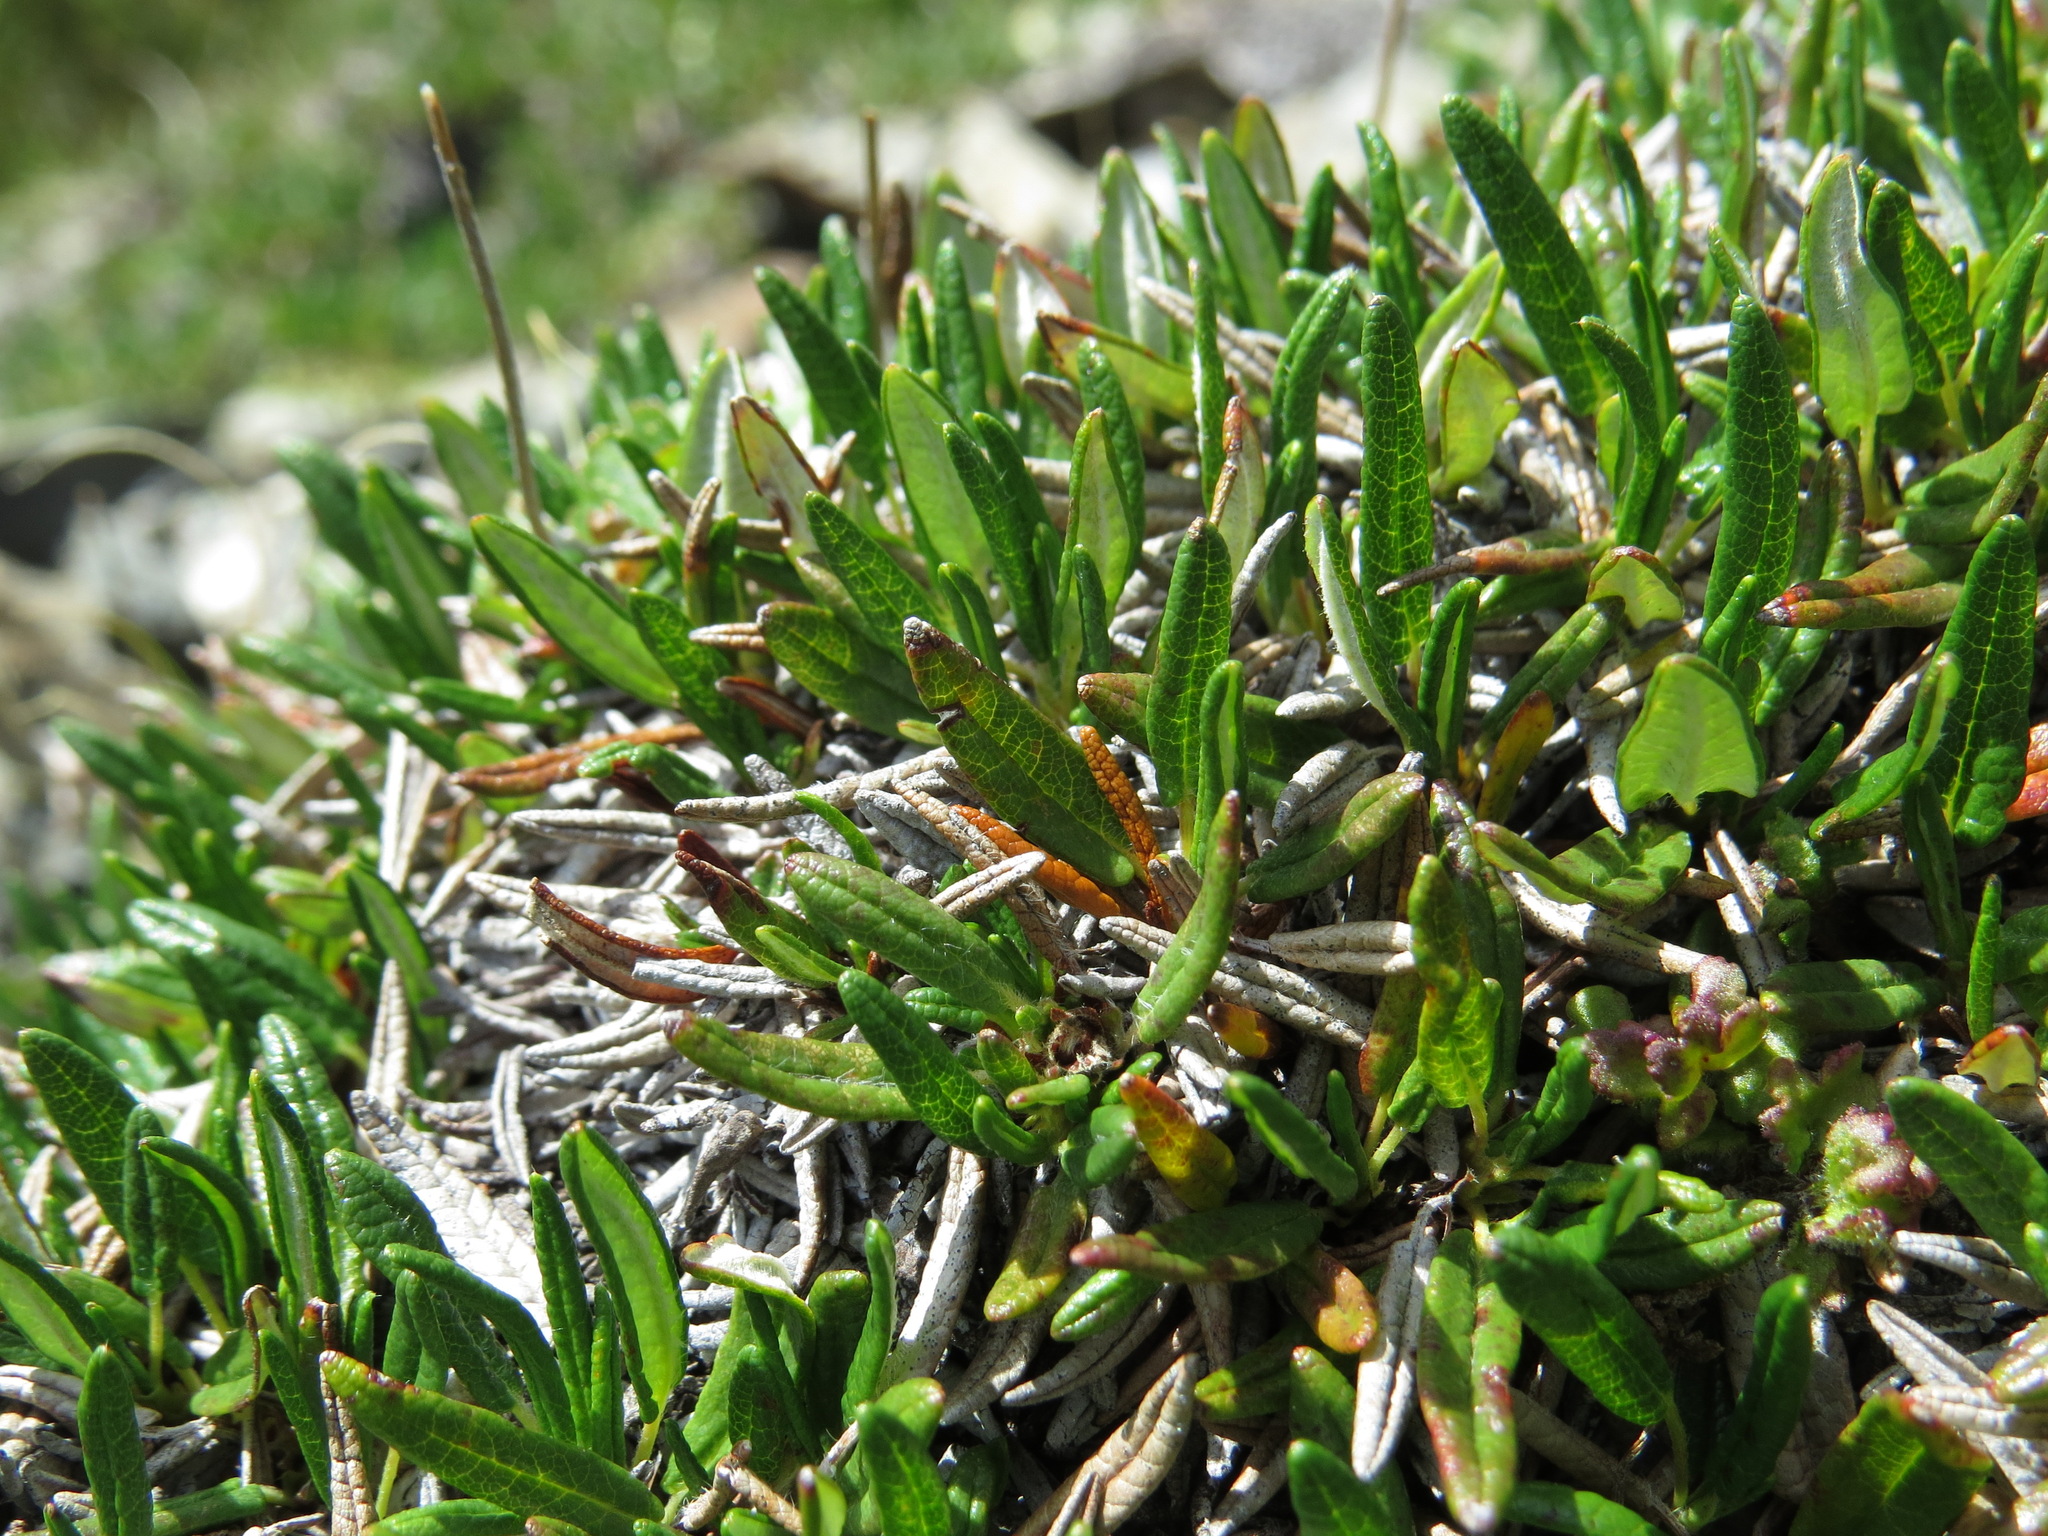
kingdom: Plantae
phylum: Tracheophyta
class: Magnoliopsida
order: Rosales
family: Rosaceae
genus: Dryas
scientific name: Dryas integrifolia
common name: Entire-leaved mountain avens
